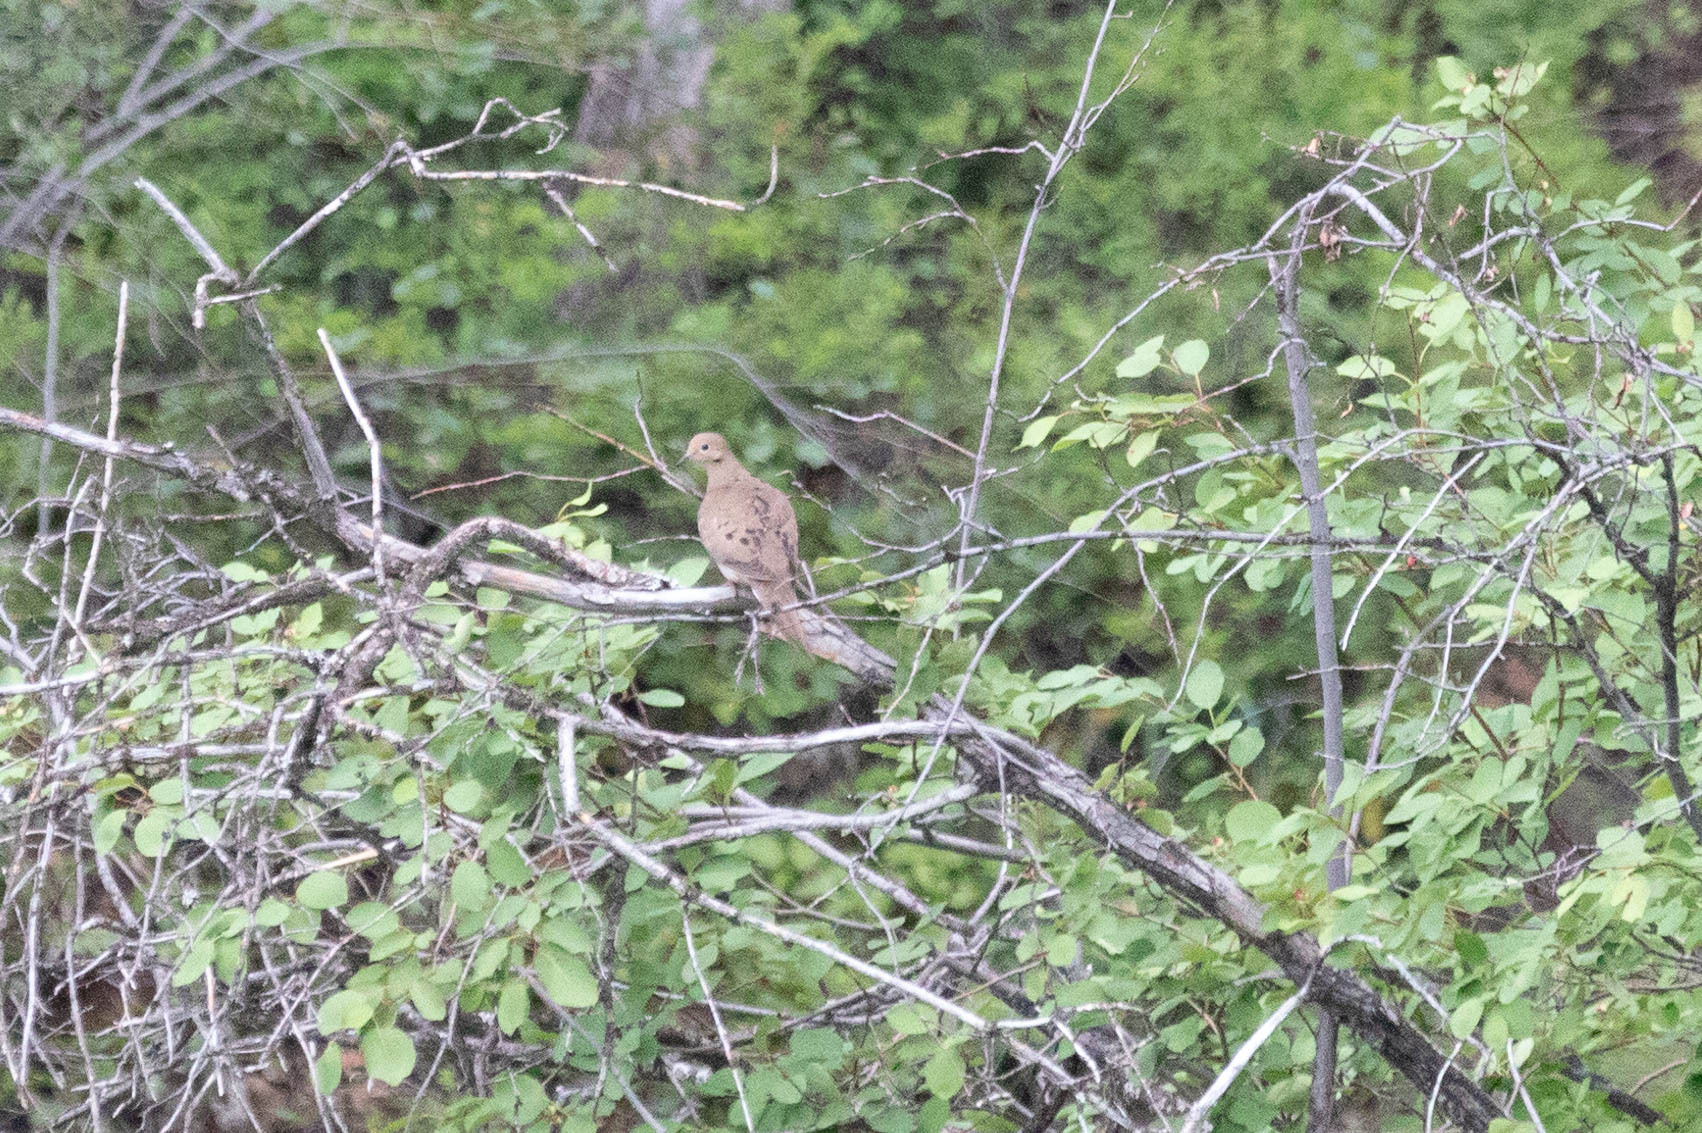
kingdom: Animalia
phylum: Chordata
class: Aves
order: Columbiformes
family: Columbidae
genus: Zenaida
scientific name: Zenaida macroura
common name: Mourning dove
